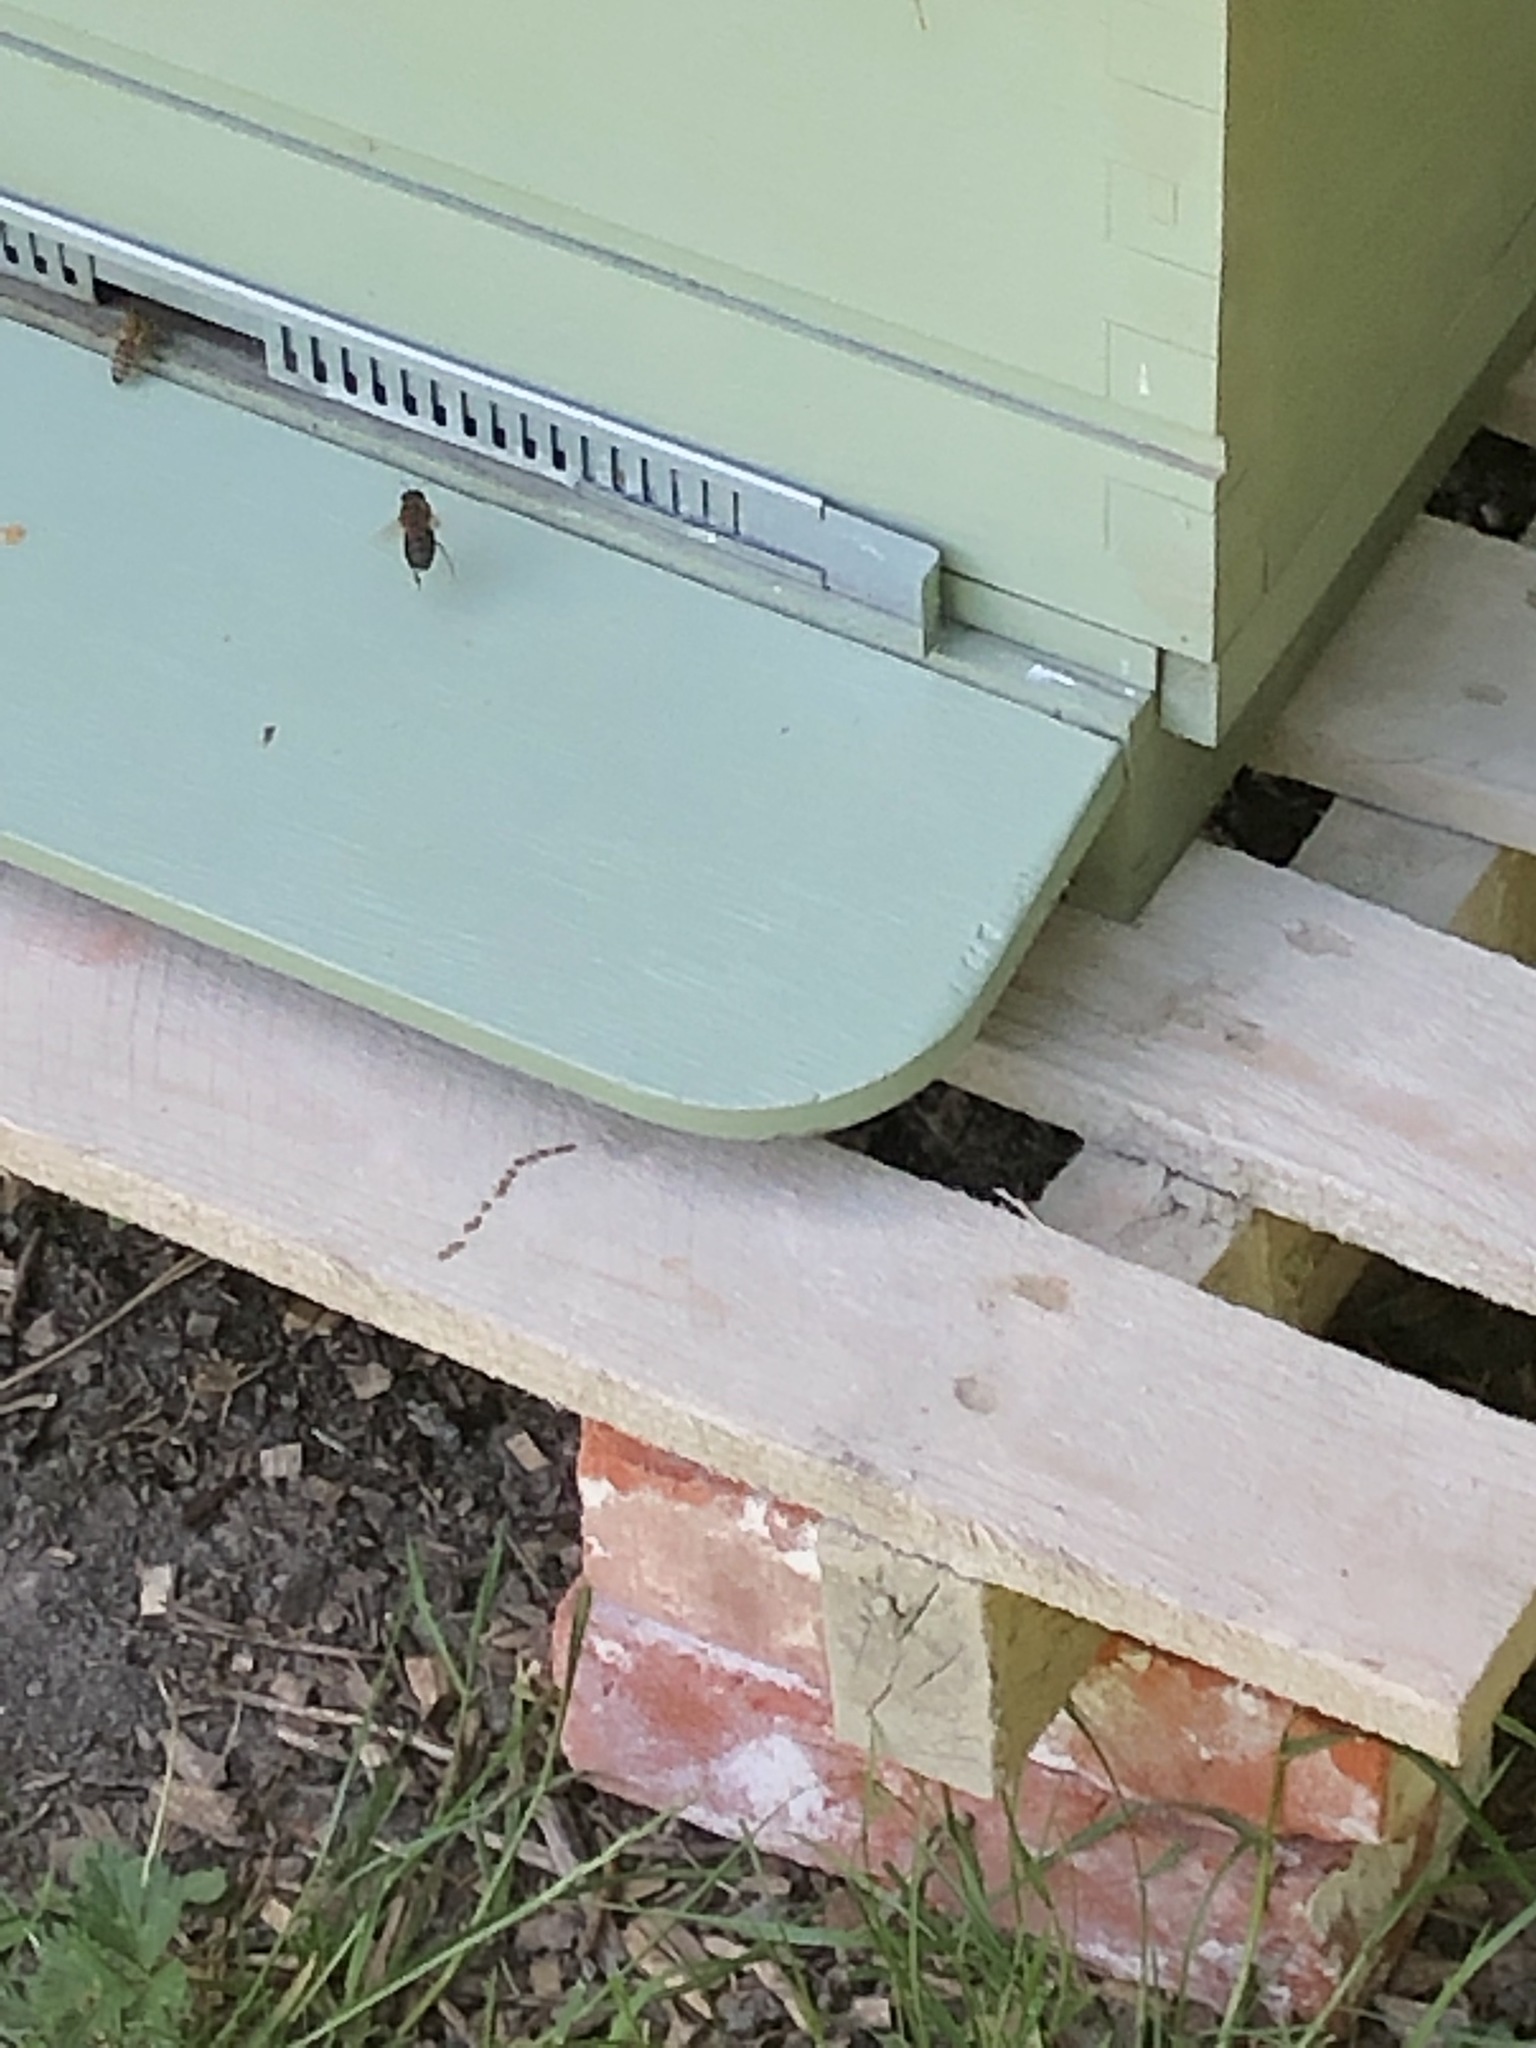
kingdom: Animalia
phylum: Arthropoda
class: Insecta
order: Hymenoptera
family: Apidae
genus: Apis
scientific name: Apis mellifera
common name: Honey bee
